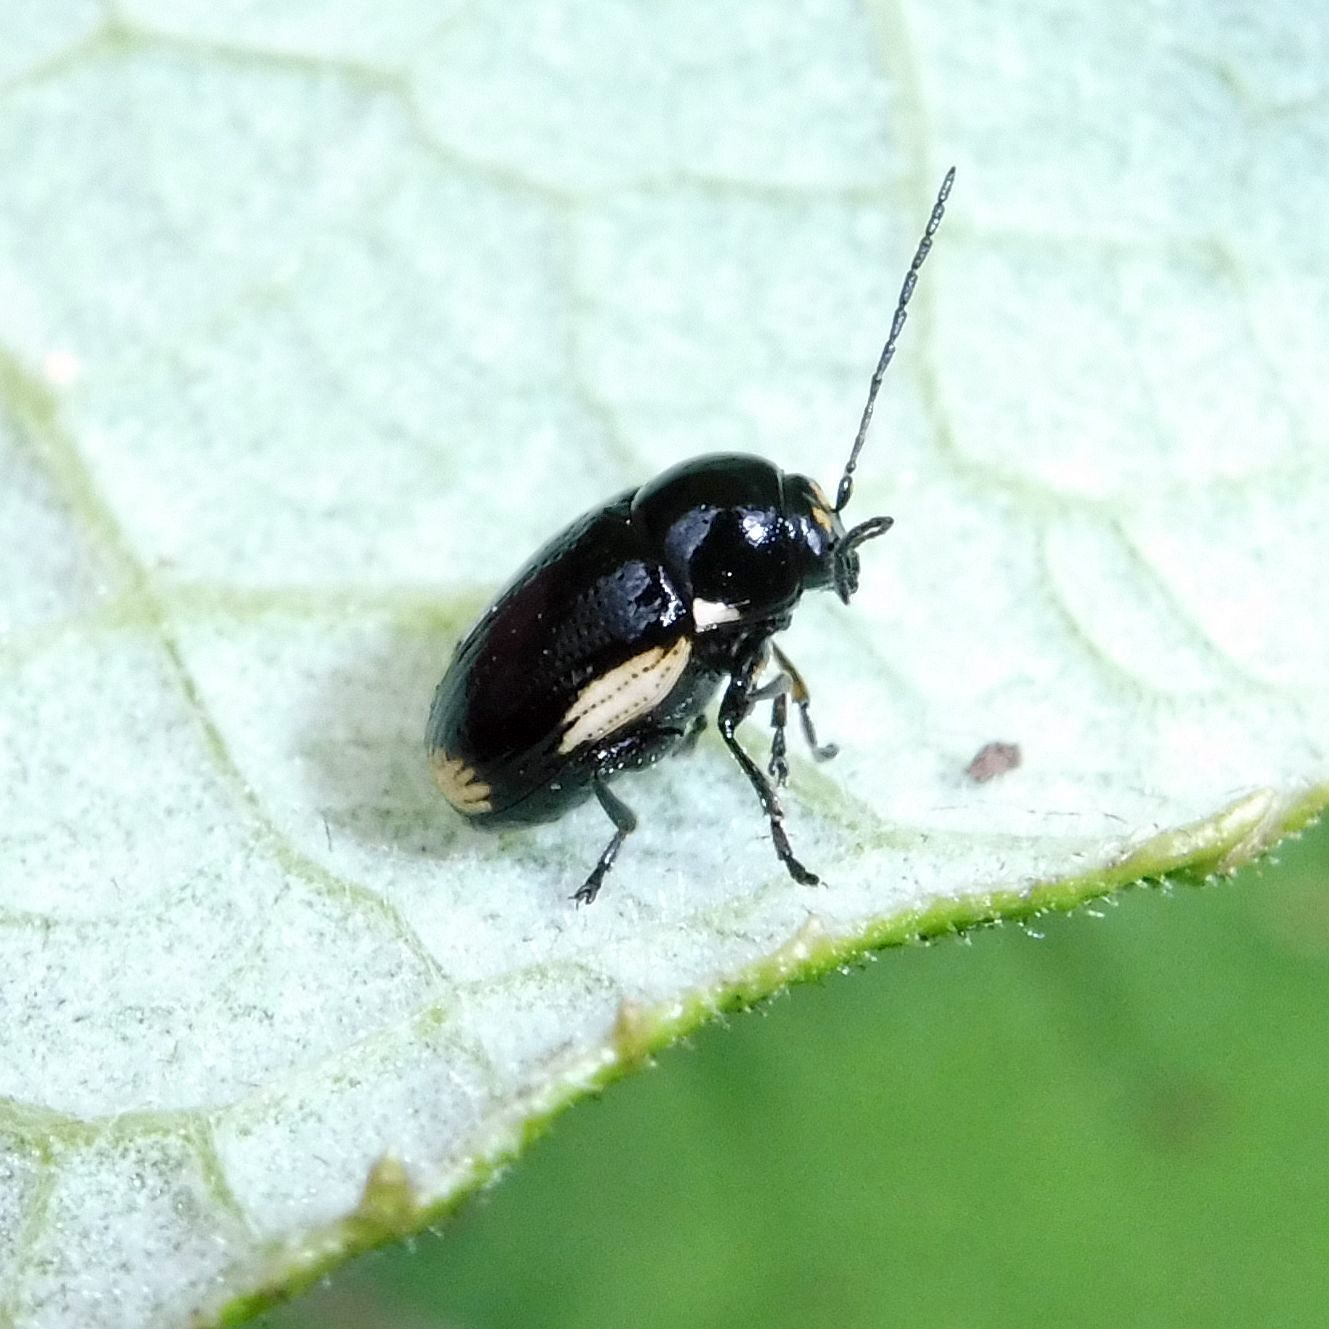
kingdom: Animalia
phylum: Arthropoda
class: Insecta
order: Coleoptera
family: Chrysomelidae
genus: Cryptocephalus
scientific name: Cryptocephalus moraei
